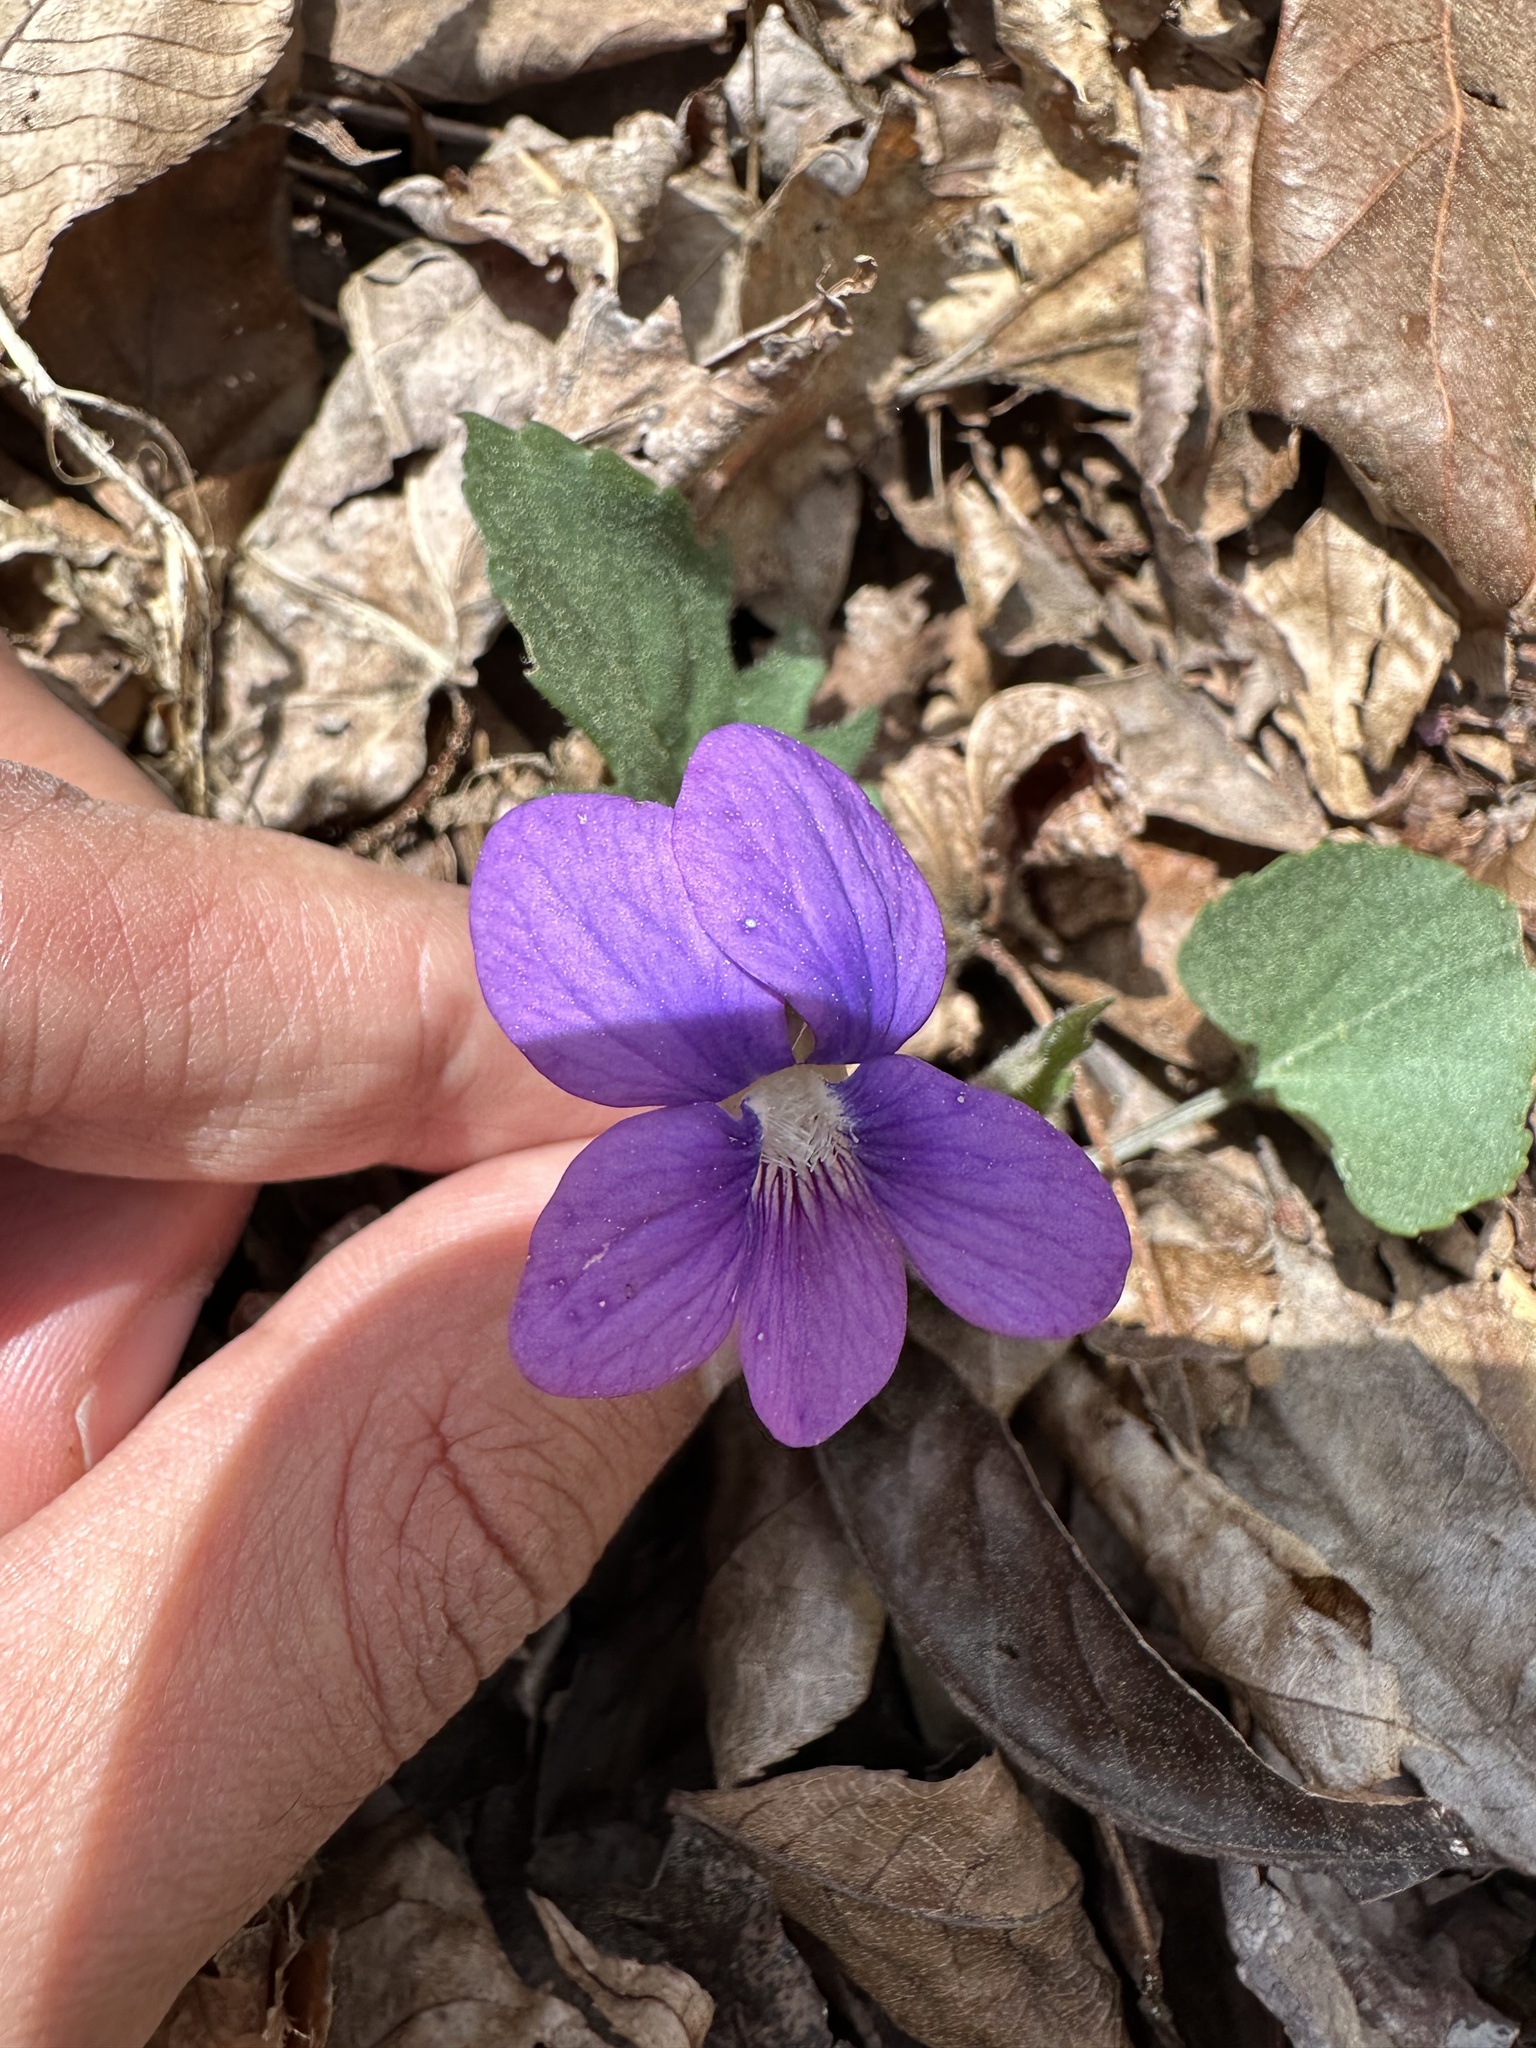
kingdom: Plantae
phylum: Tracheophyta
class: Magnoliopsida
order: Malpighiales
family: Violaceae
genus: Viola
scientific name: Viola palmata
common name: Early blue violet
